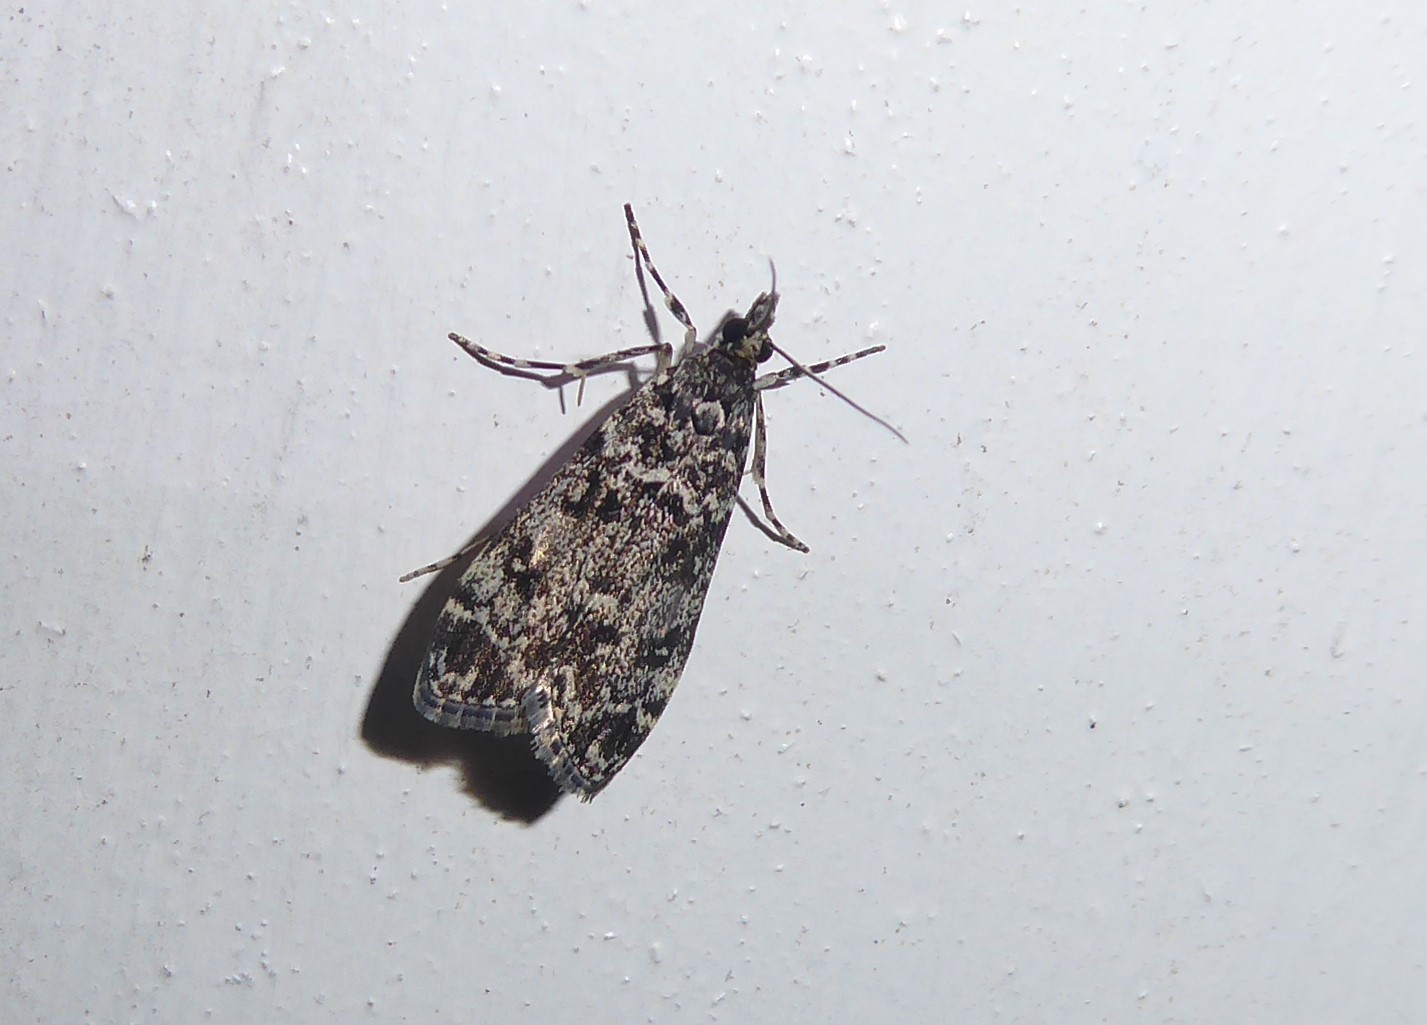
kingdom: Animalia
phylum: Arthropoda
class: Insecta
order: Lepidoptera
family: Crambidae
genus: Eudonia
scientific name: Eudonia philerga
